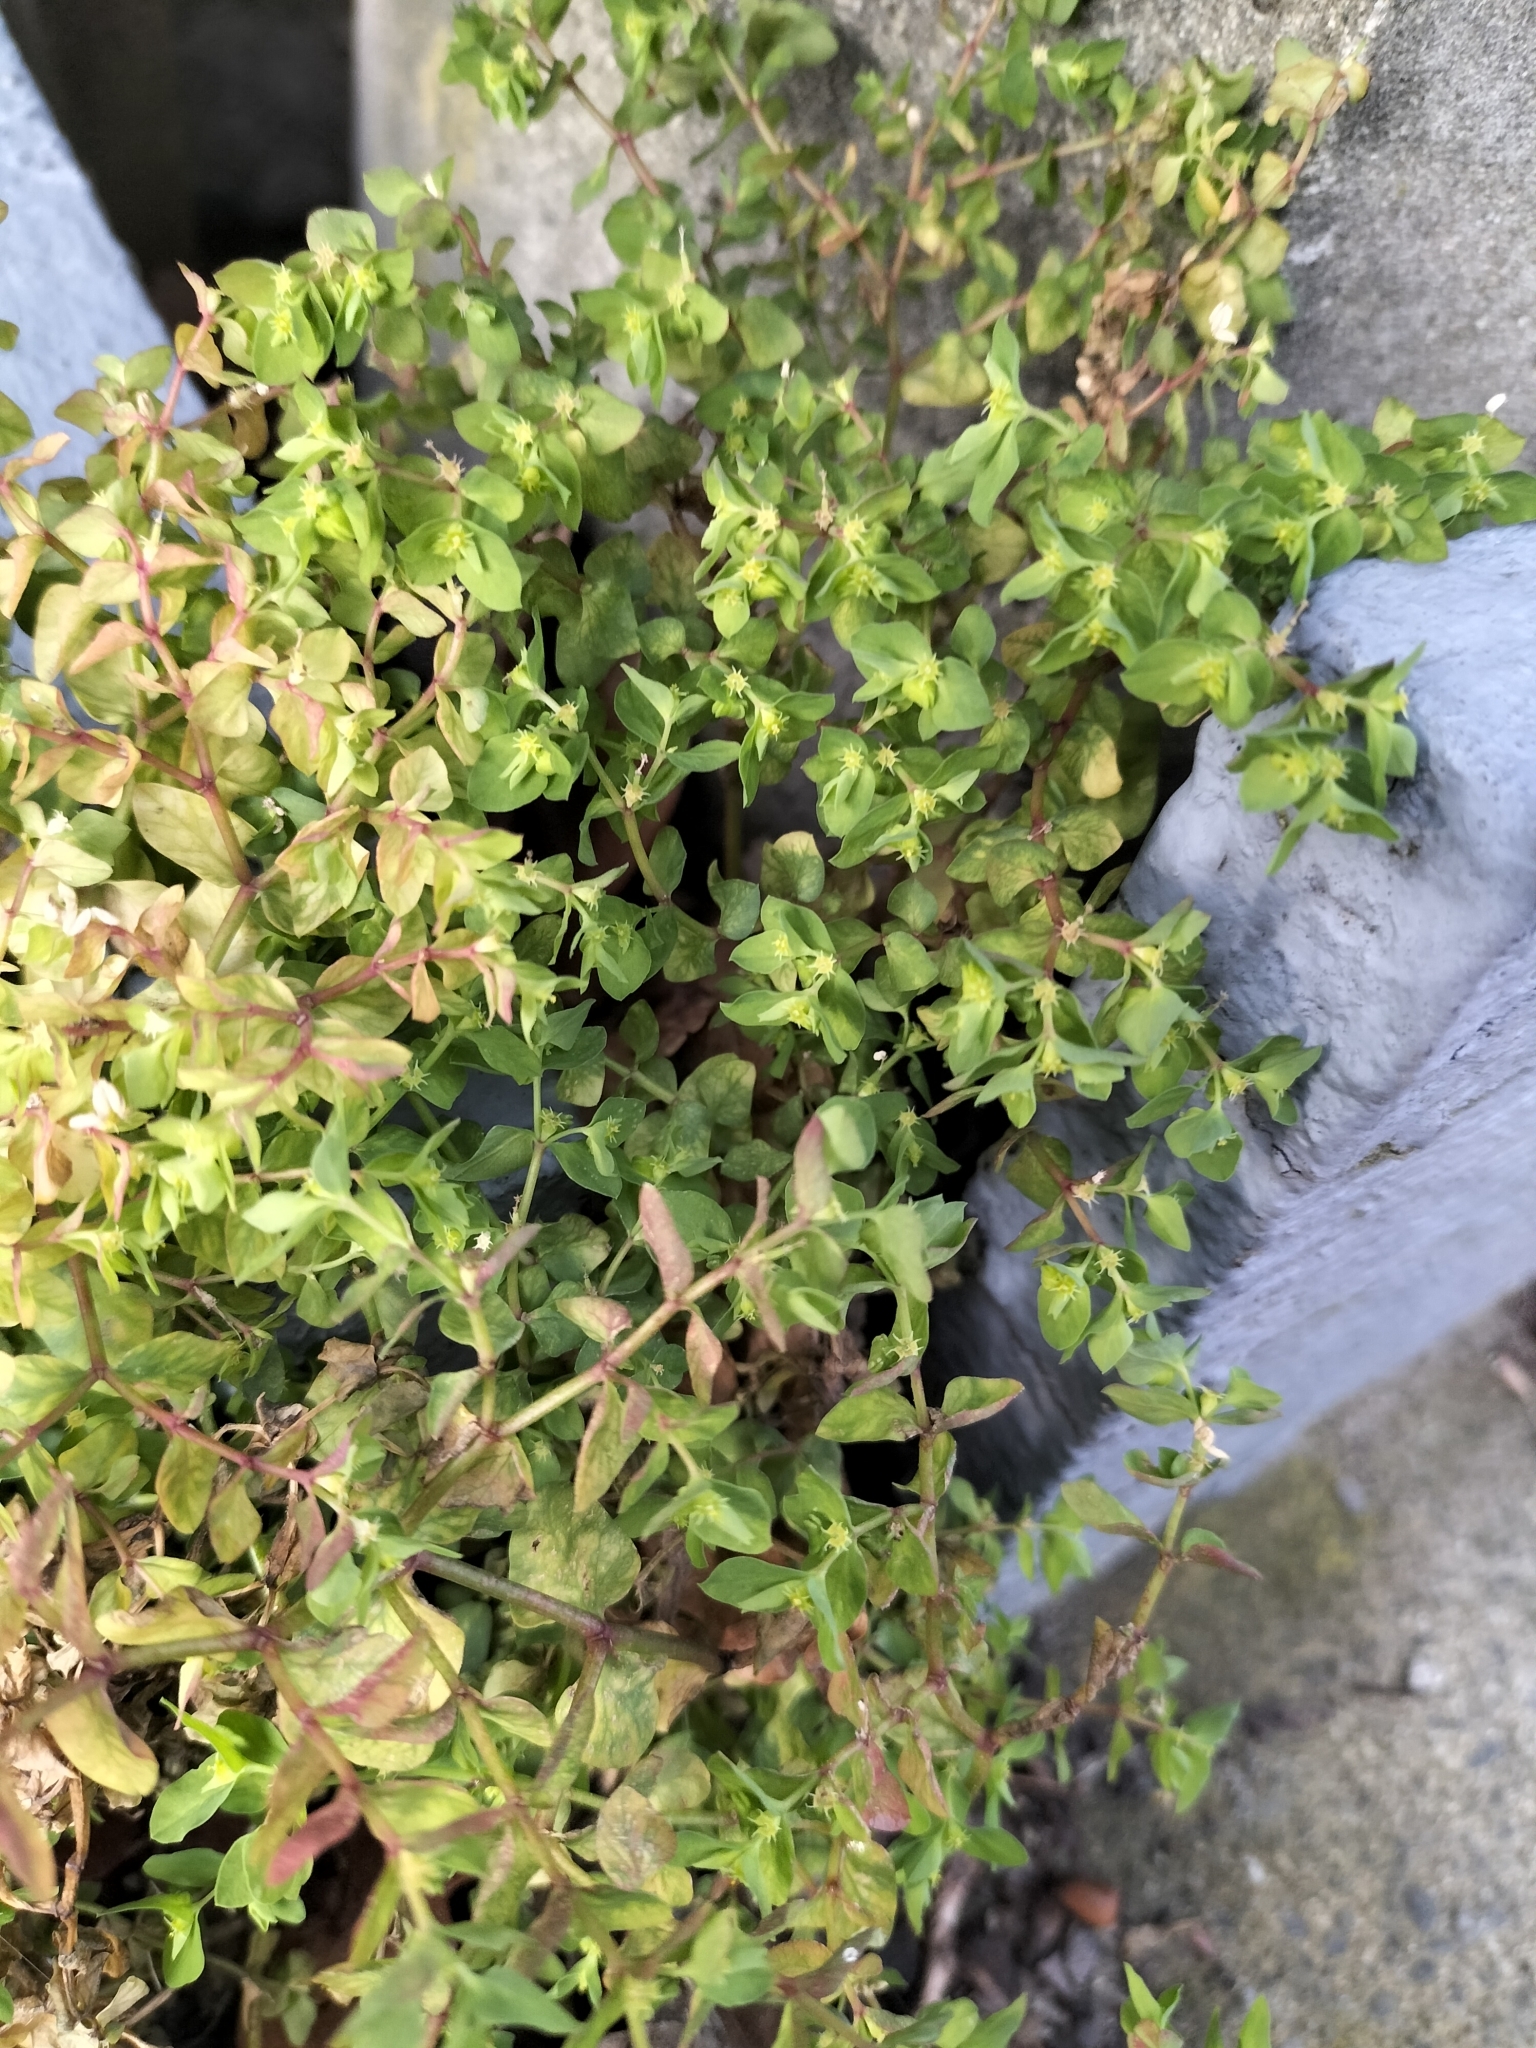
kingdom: Plantae
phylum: Tracheophyta
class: Magnoliopsida
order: Malpighiales
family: Euphorbiaceae
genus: Euphorbia
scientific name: Euphorbia peplus
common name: Petty spurge
